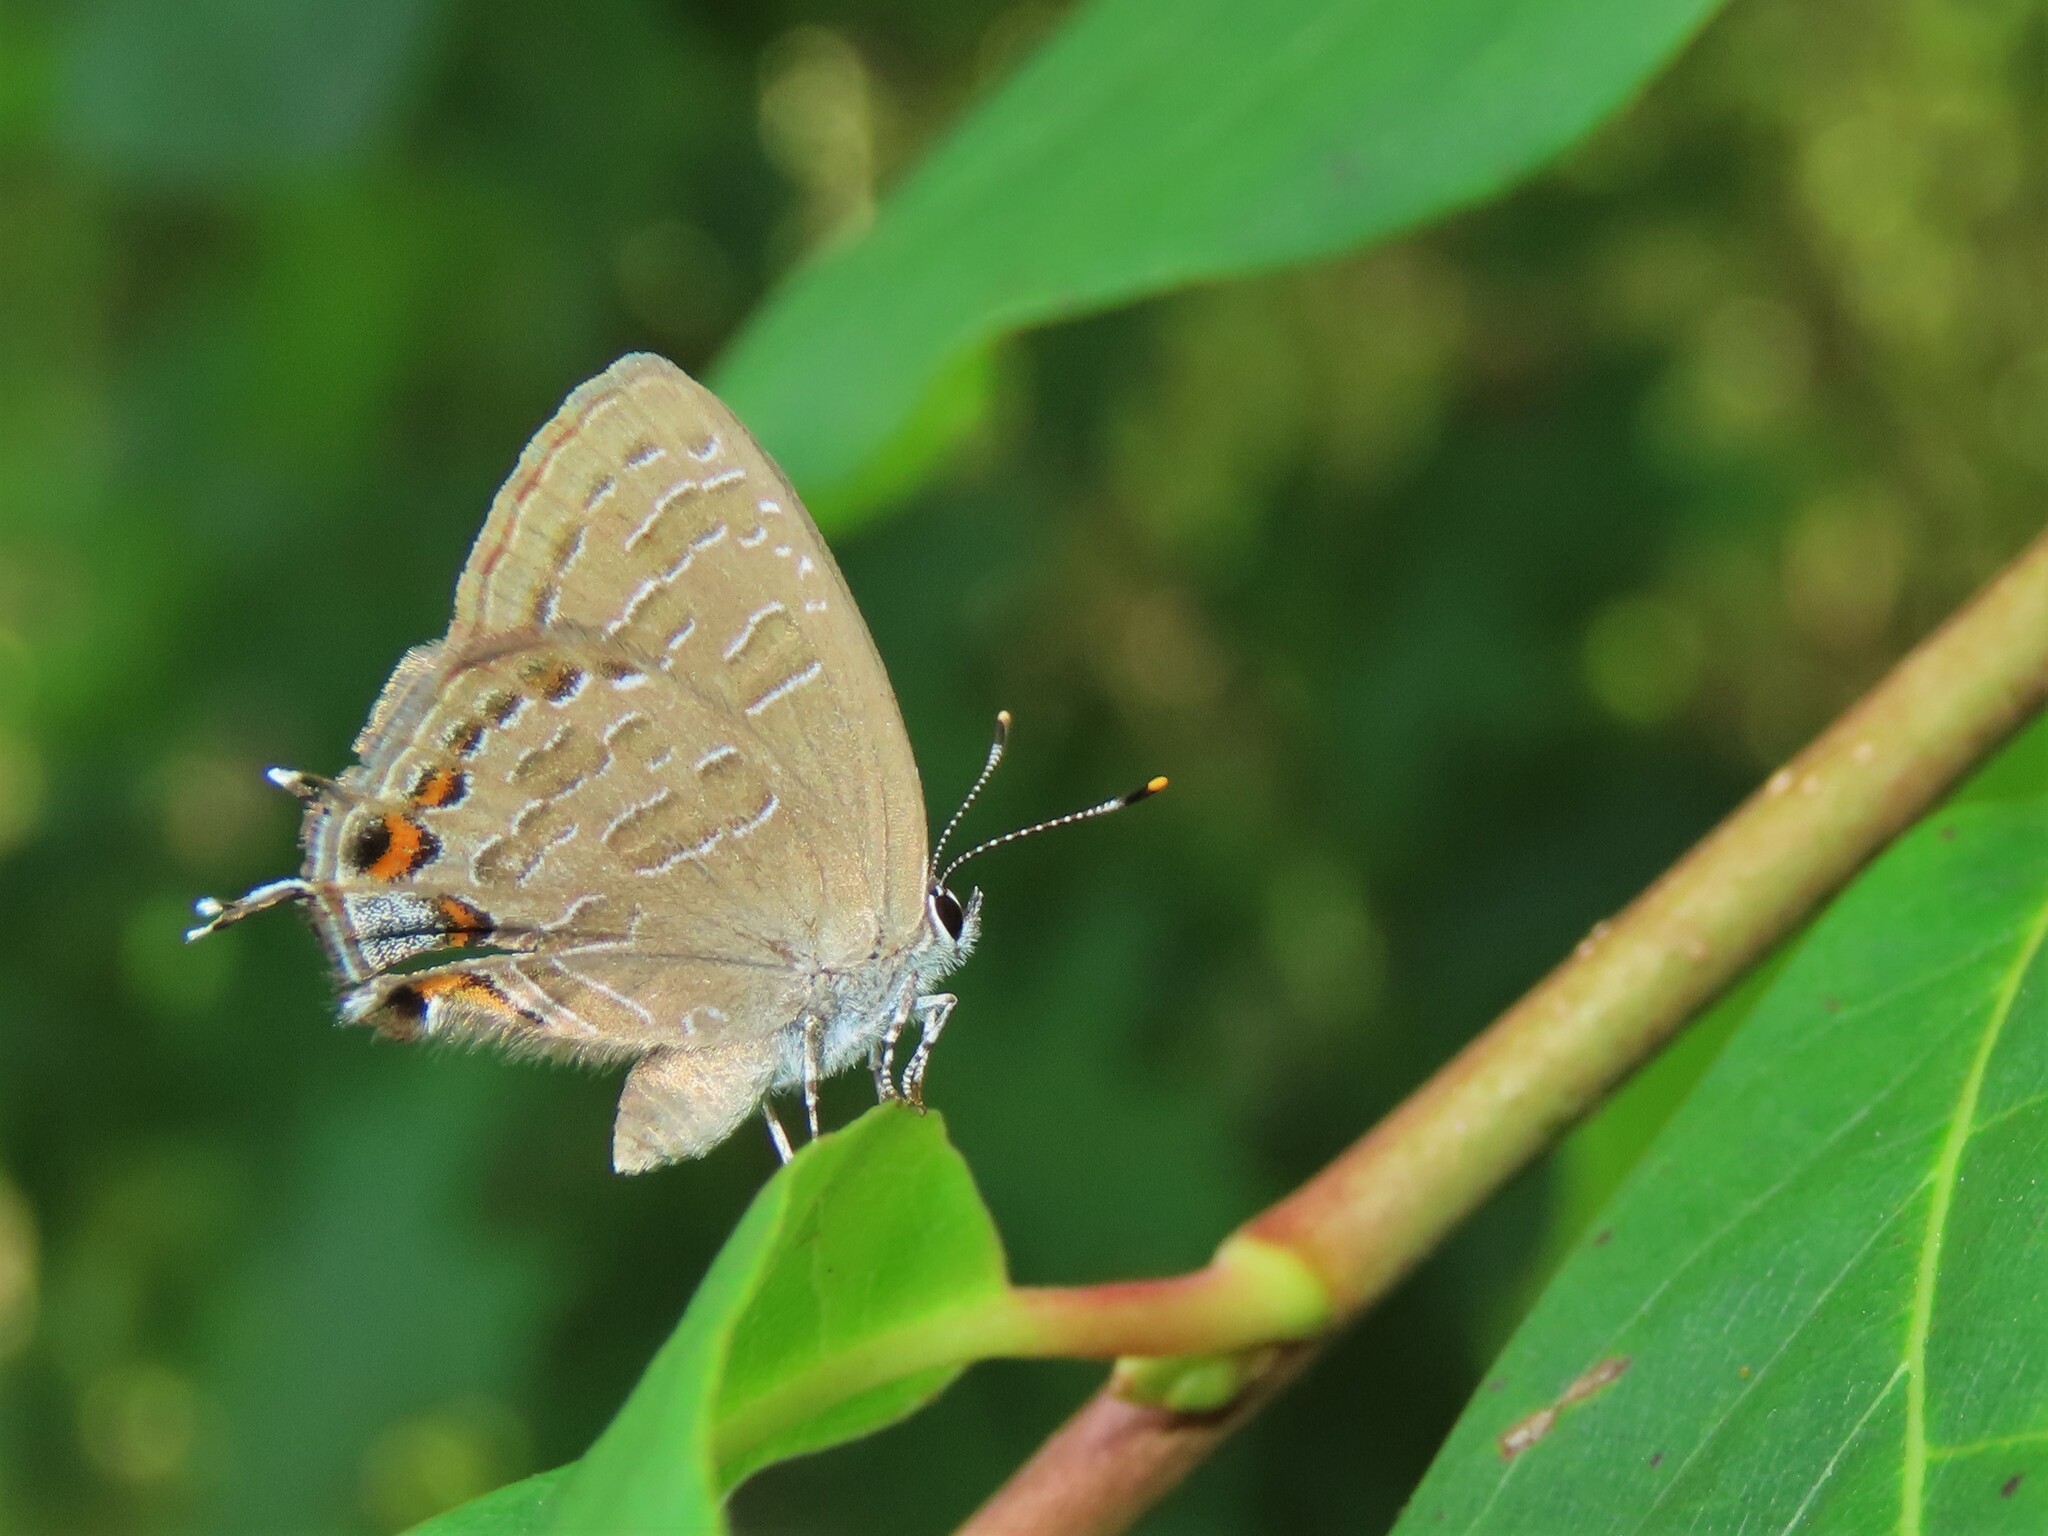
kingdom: Animalia
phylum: Arthropoda
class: Insecta
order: Lepidoptera
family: Lycaenidae
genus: Satyrium
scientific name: Satyrium liparops
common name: Striped hairstreak
